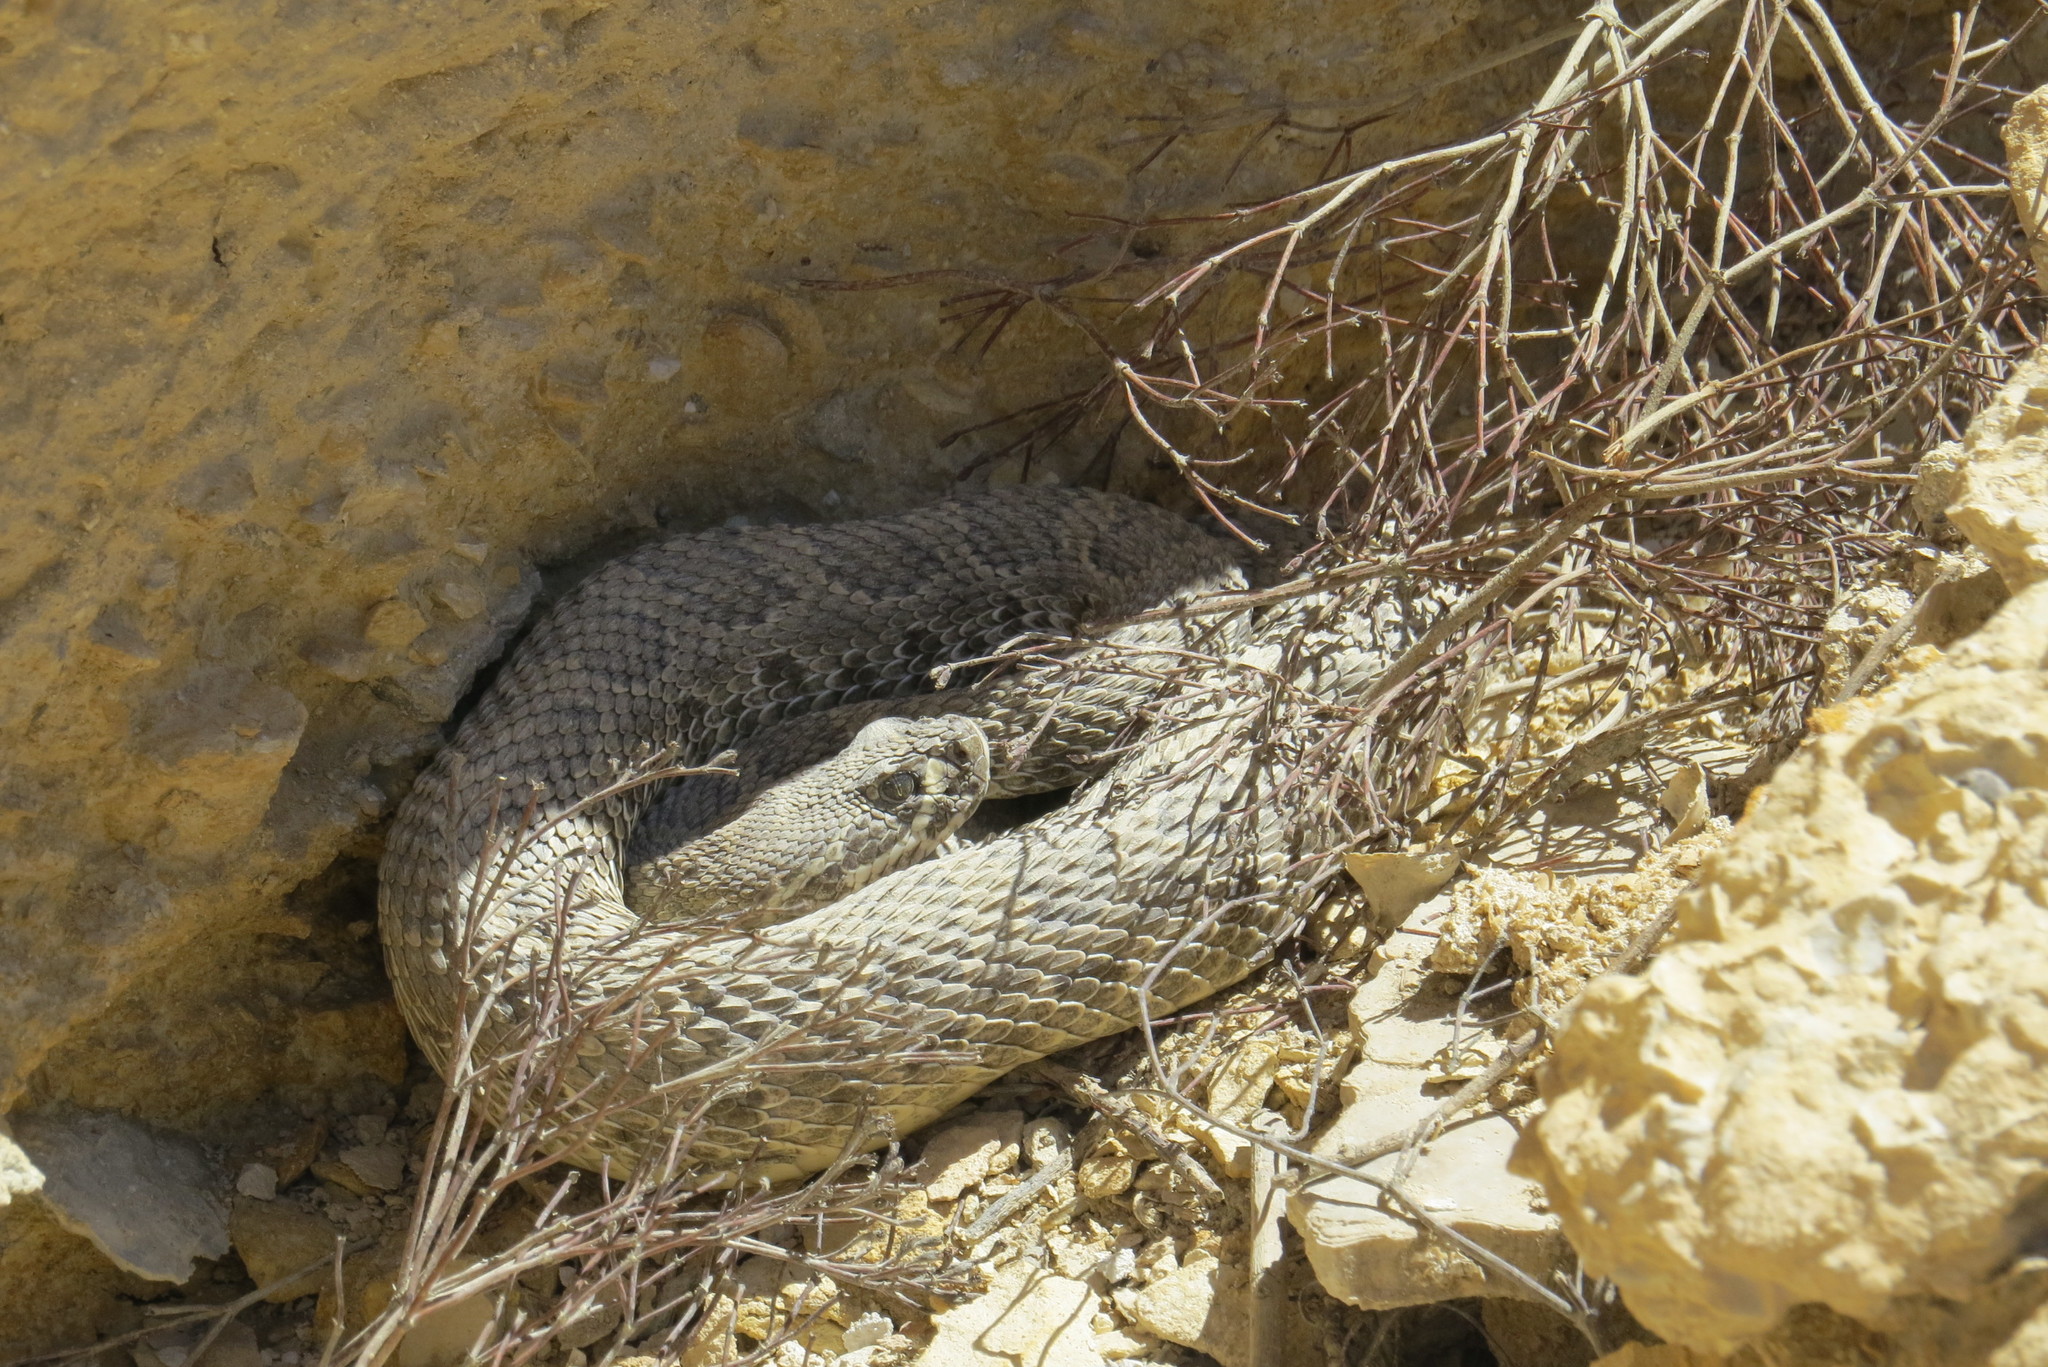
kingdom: Animalia
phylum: Chordata
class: Squamata
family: Viperidae
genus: Crotalus
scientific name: Crotalus viridis
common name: Prairie rattlesnake
